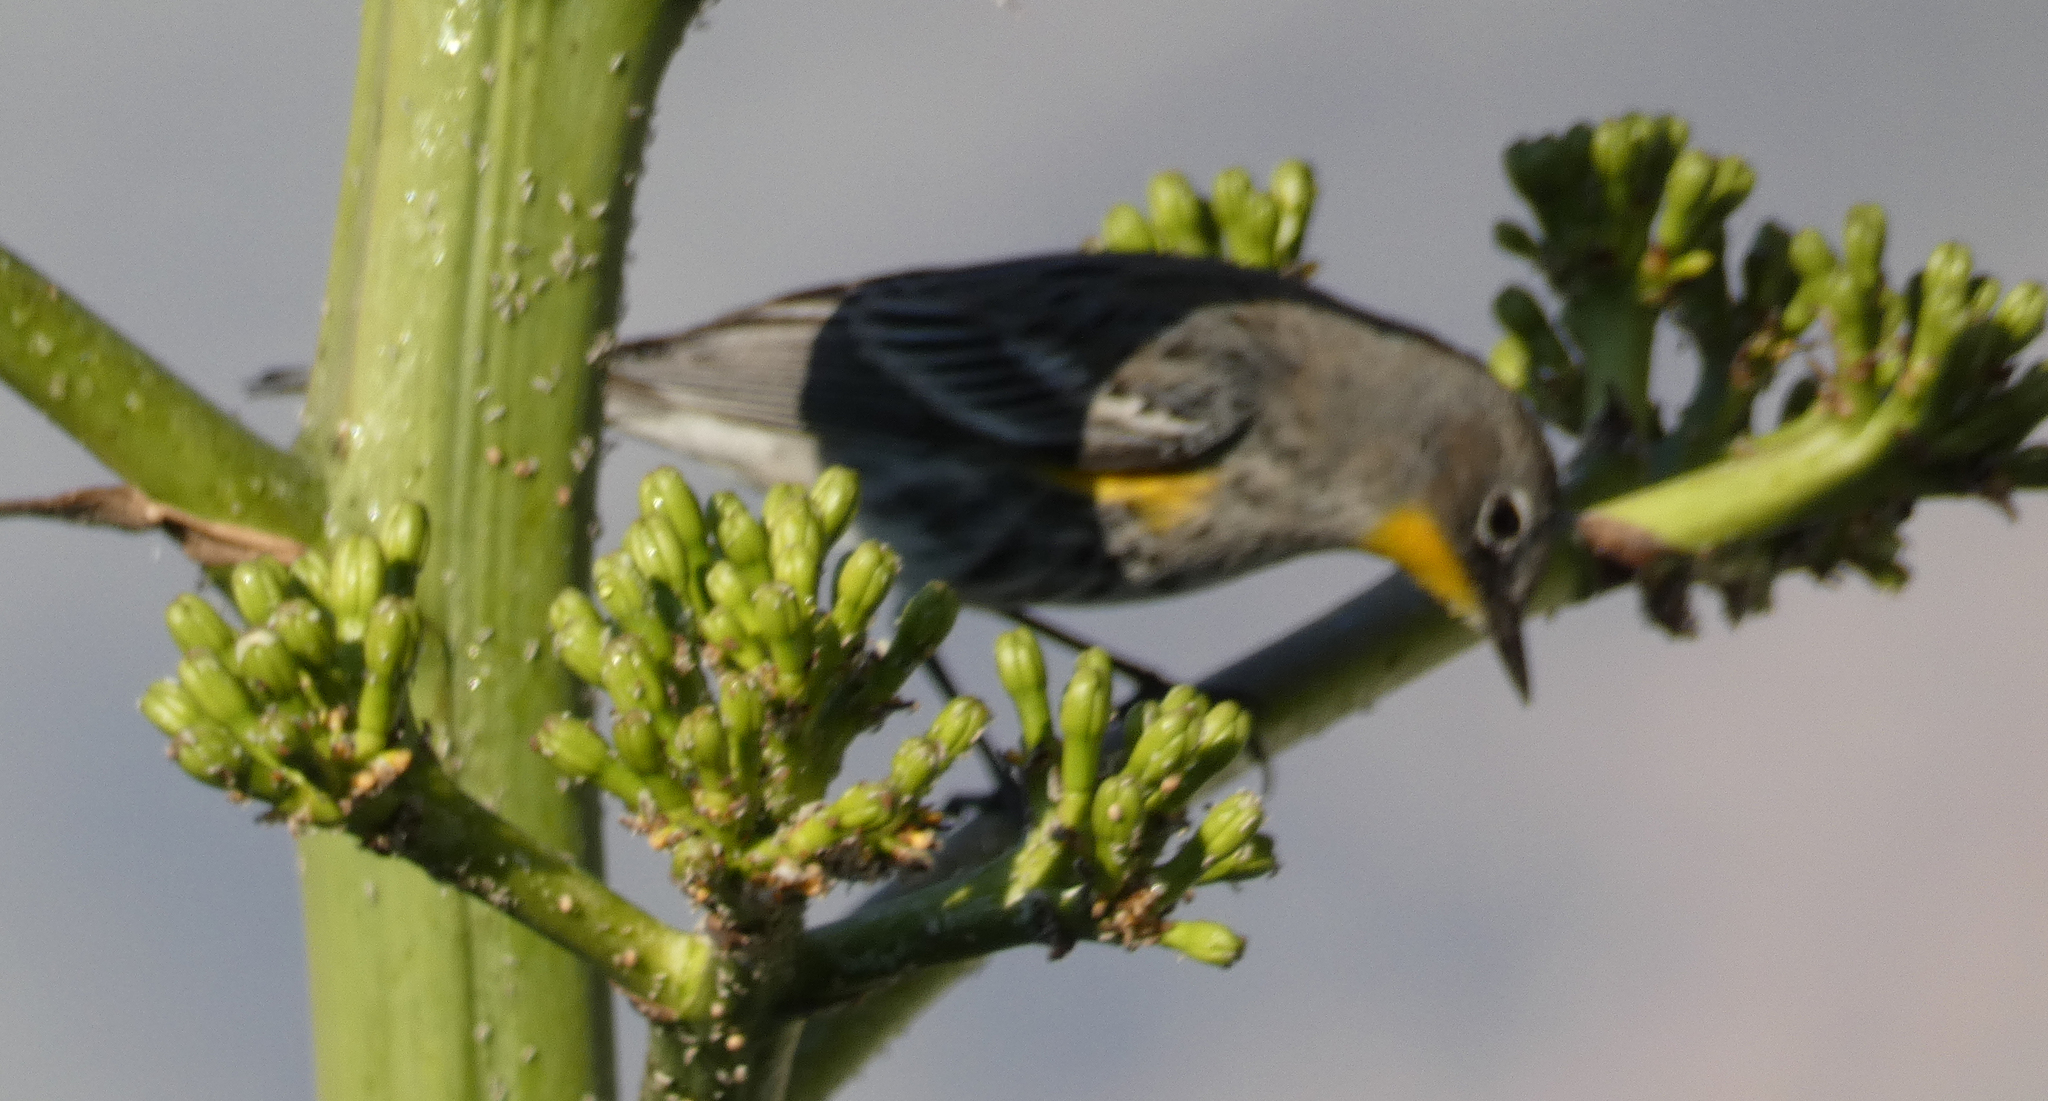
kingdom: Animalia
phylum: Chordata
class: Aves
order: Passeriformes
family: Parulidae
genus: Setophaga
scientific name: Setophaga coronata
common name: Myrtle warbler
